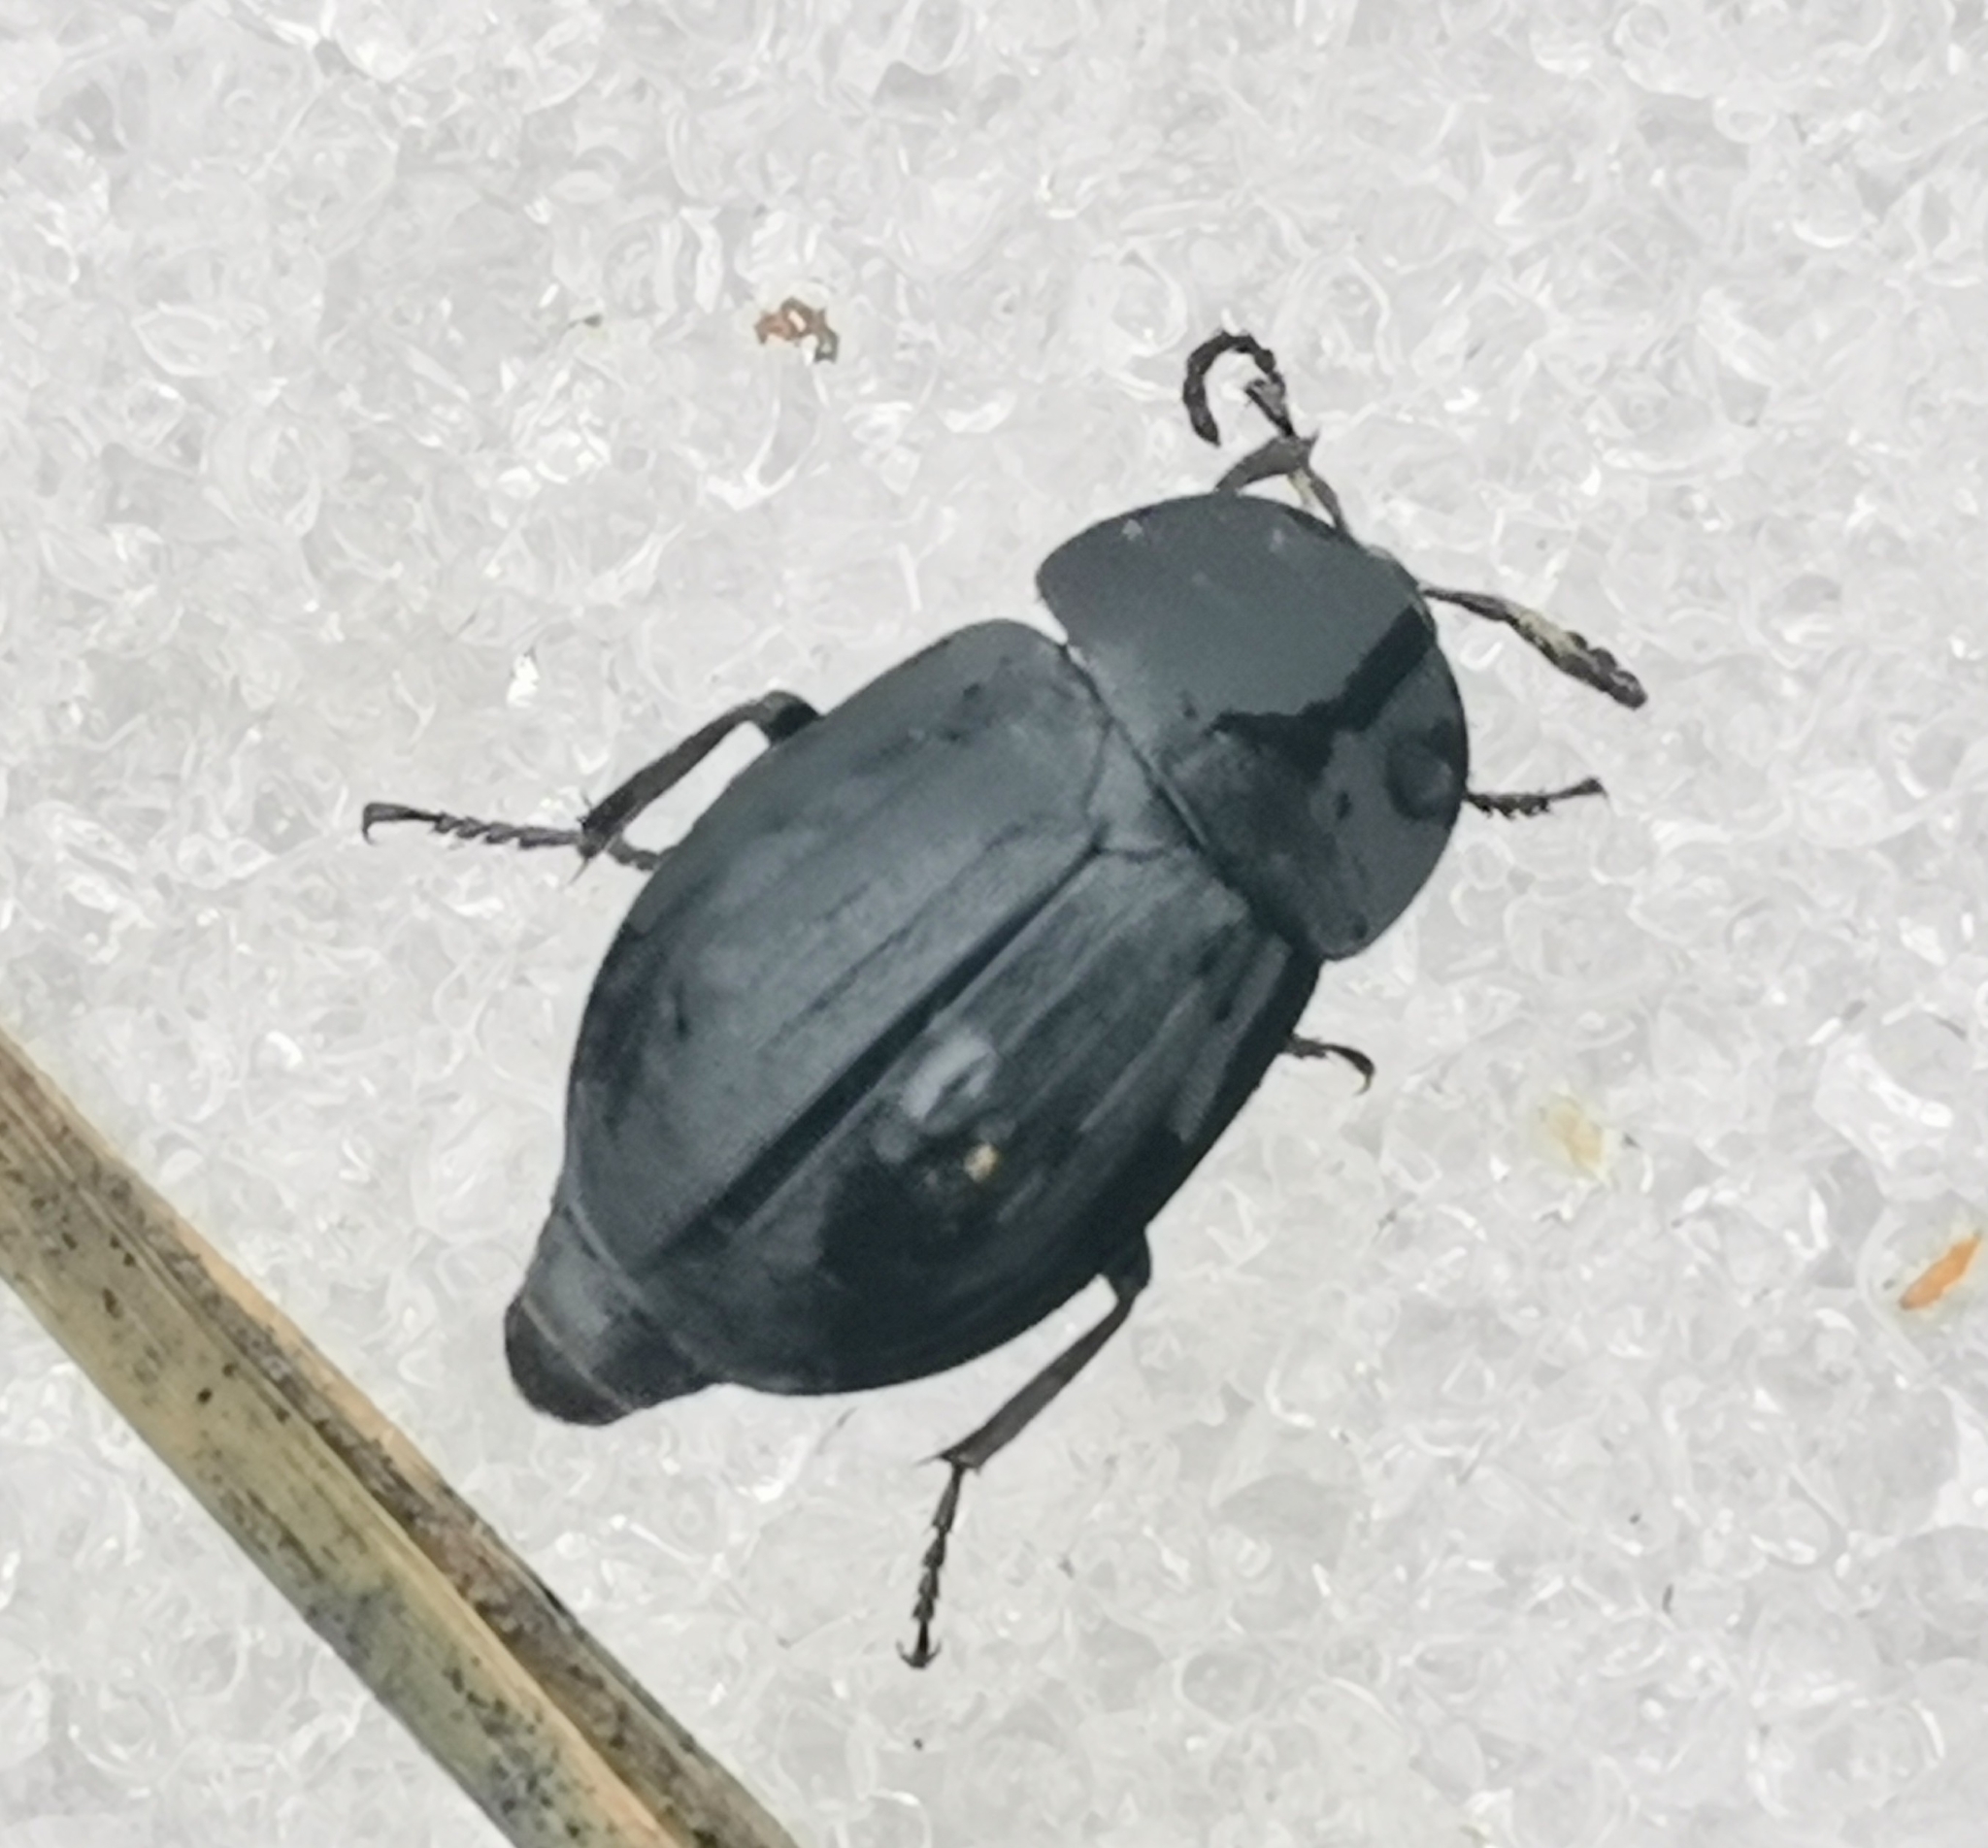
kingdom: Animalia
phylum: Arthropoda
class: Insecta
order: Coleoptera
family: Staphylinidae
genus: Silpha
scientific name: Silpha atrata
